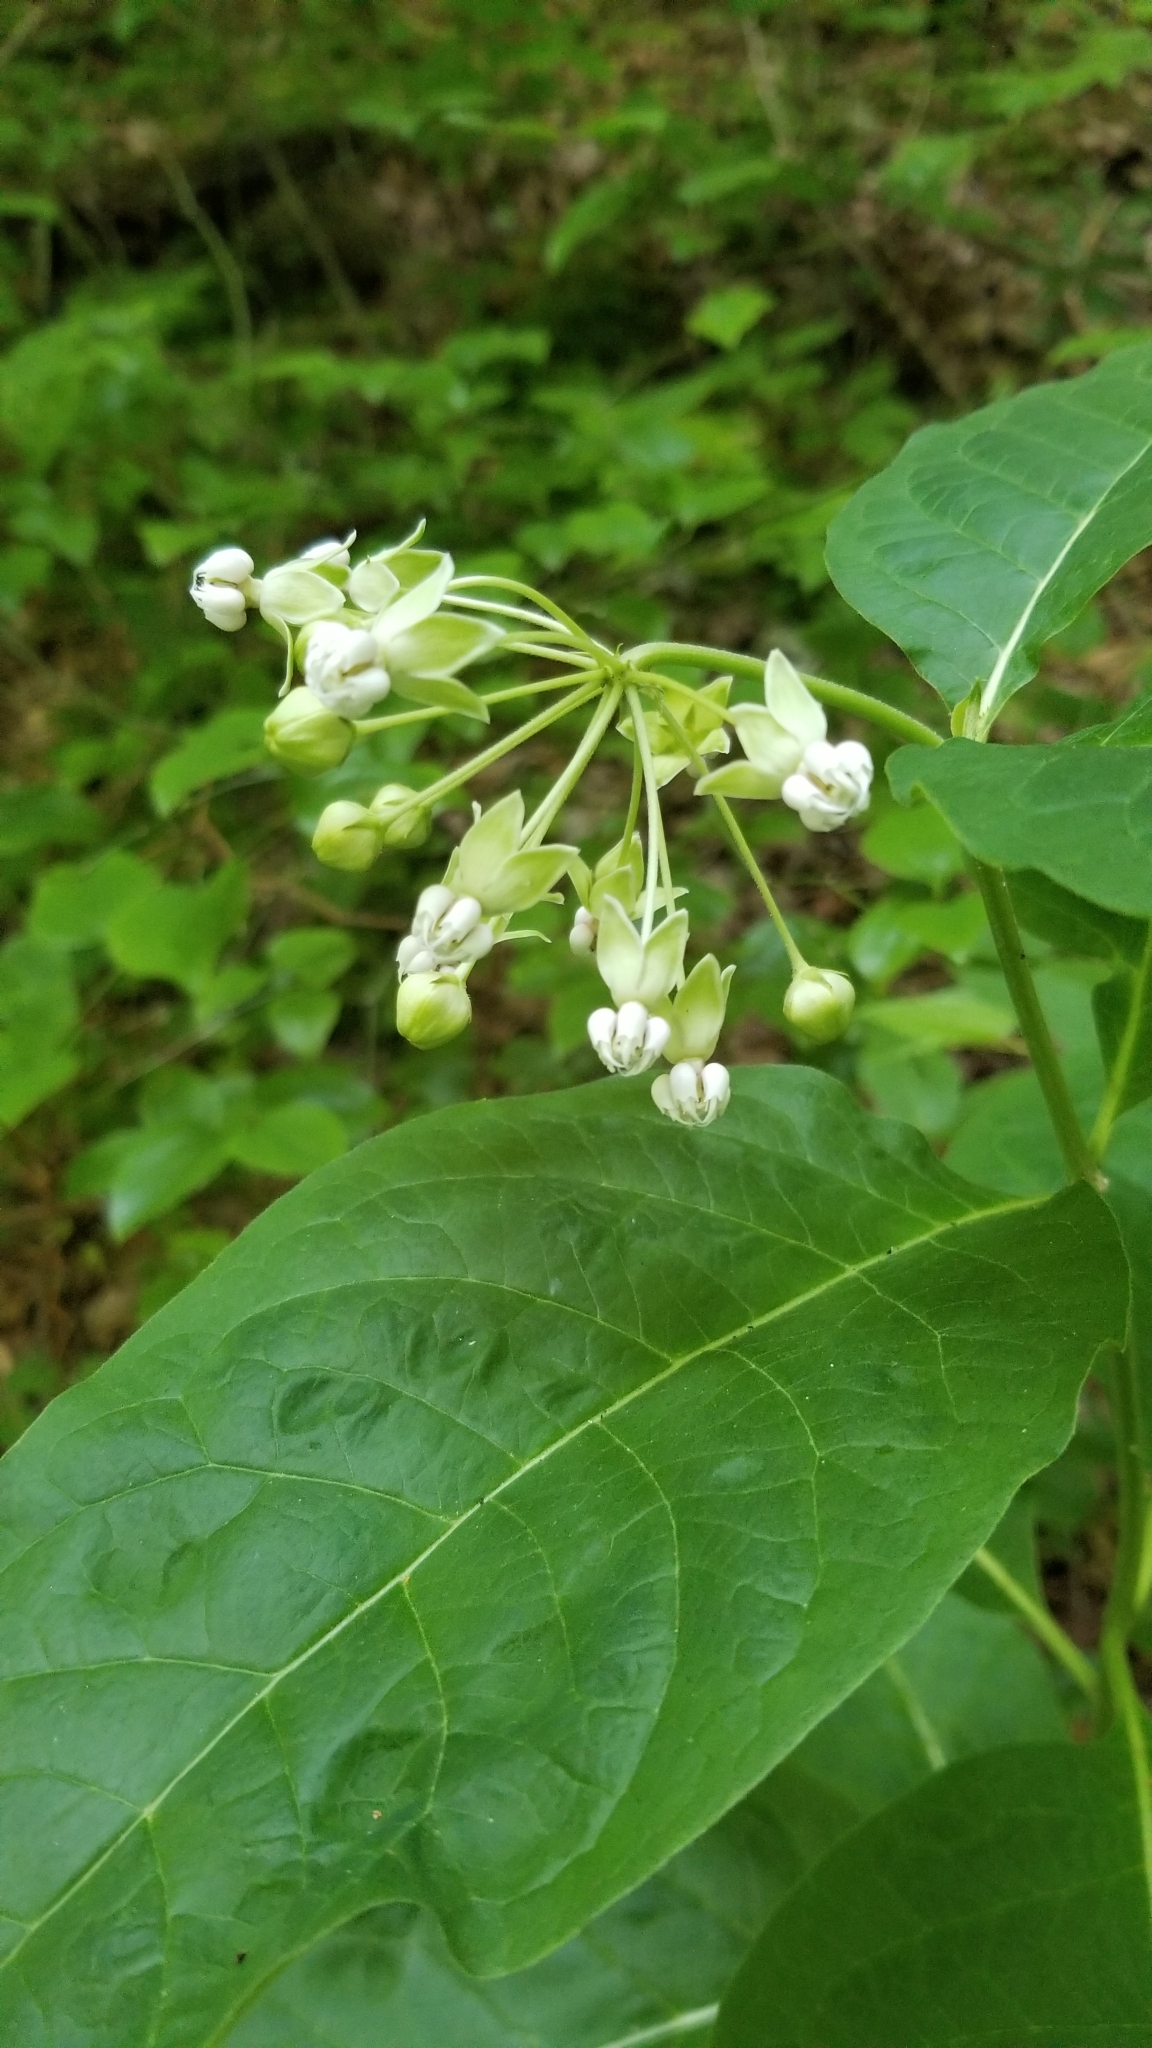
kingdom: Plantae
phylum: Tracheophyta
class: Magnoliopsida
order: Gentianales
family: Apocynaceae
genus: Asclepias
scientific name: Asclepias exaltata
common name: Poke milkweed
